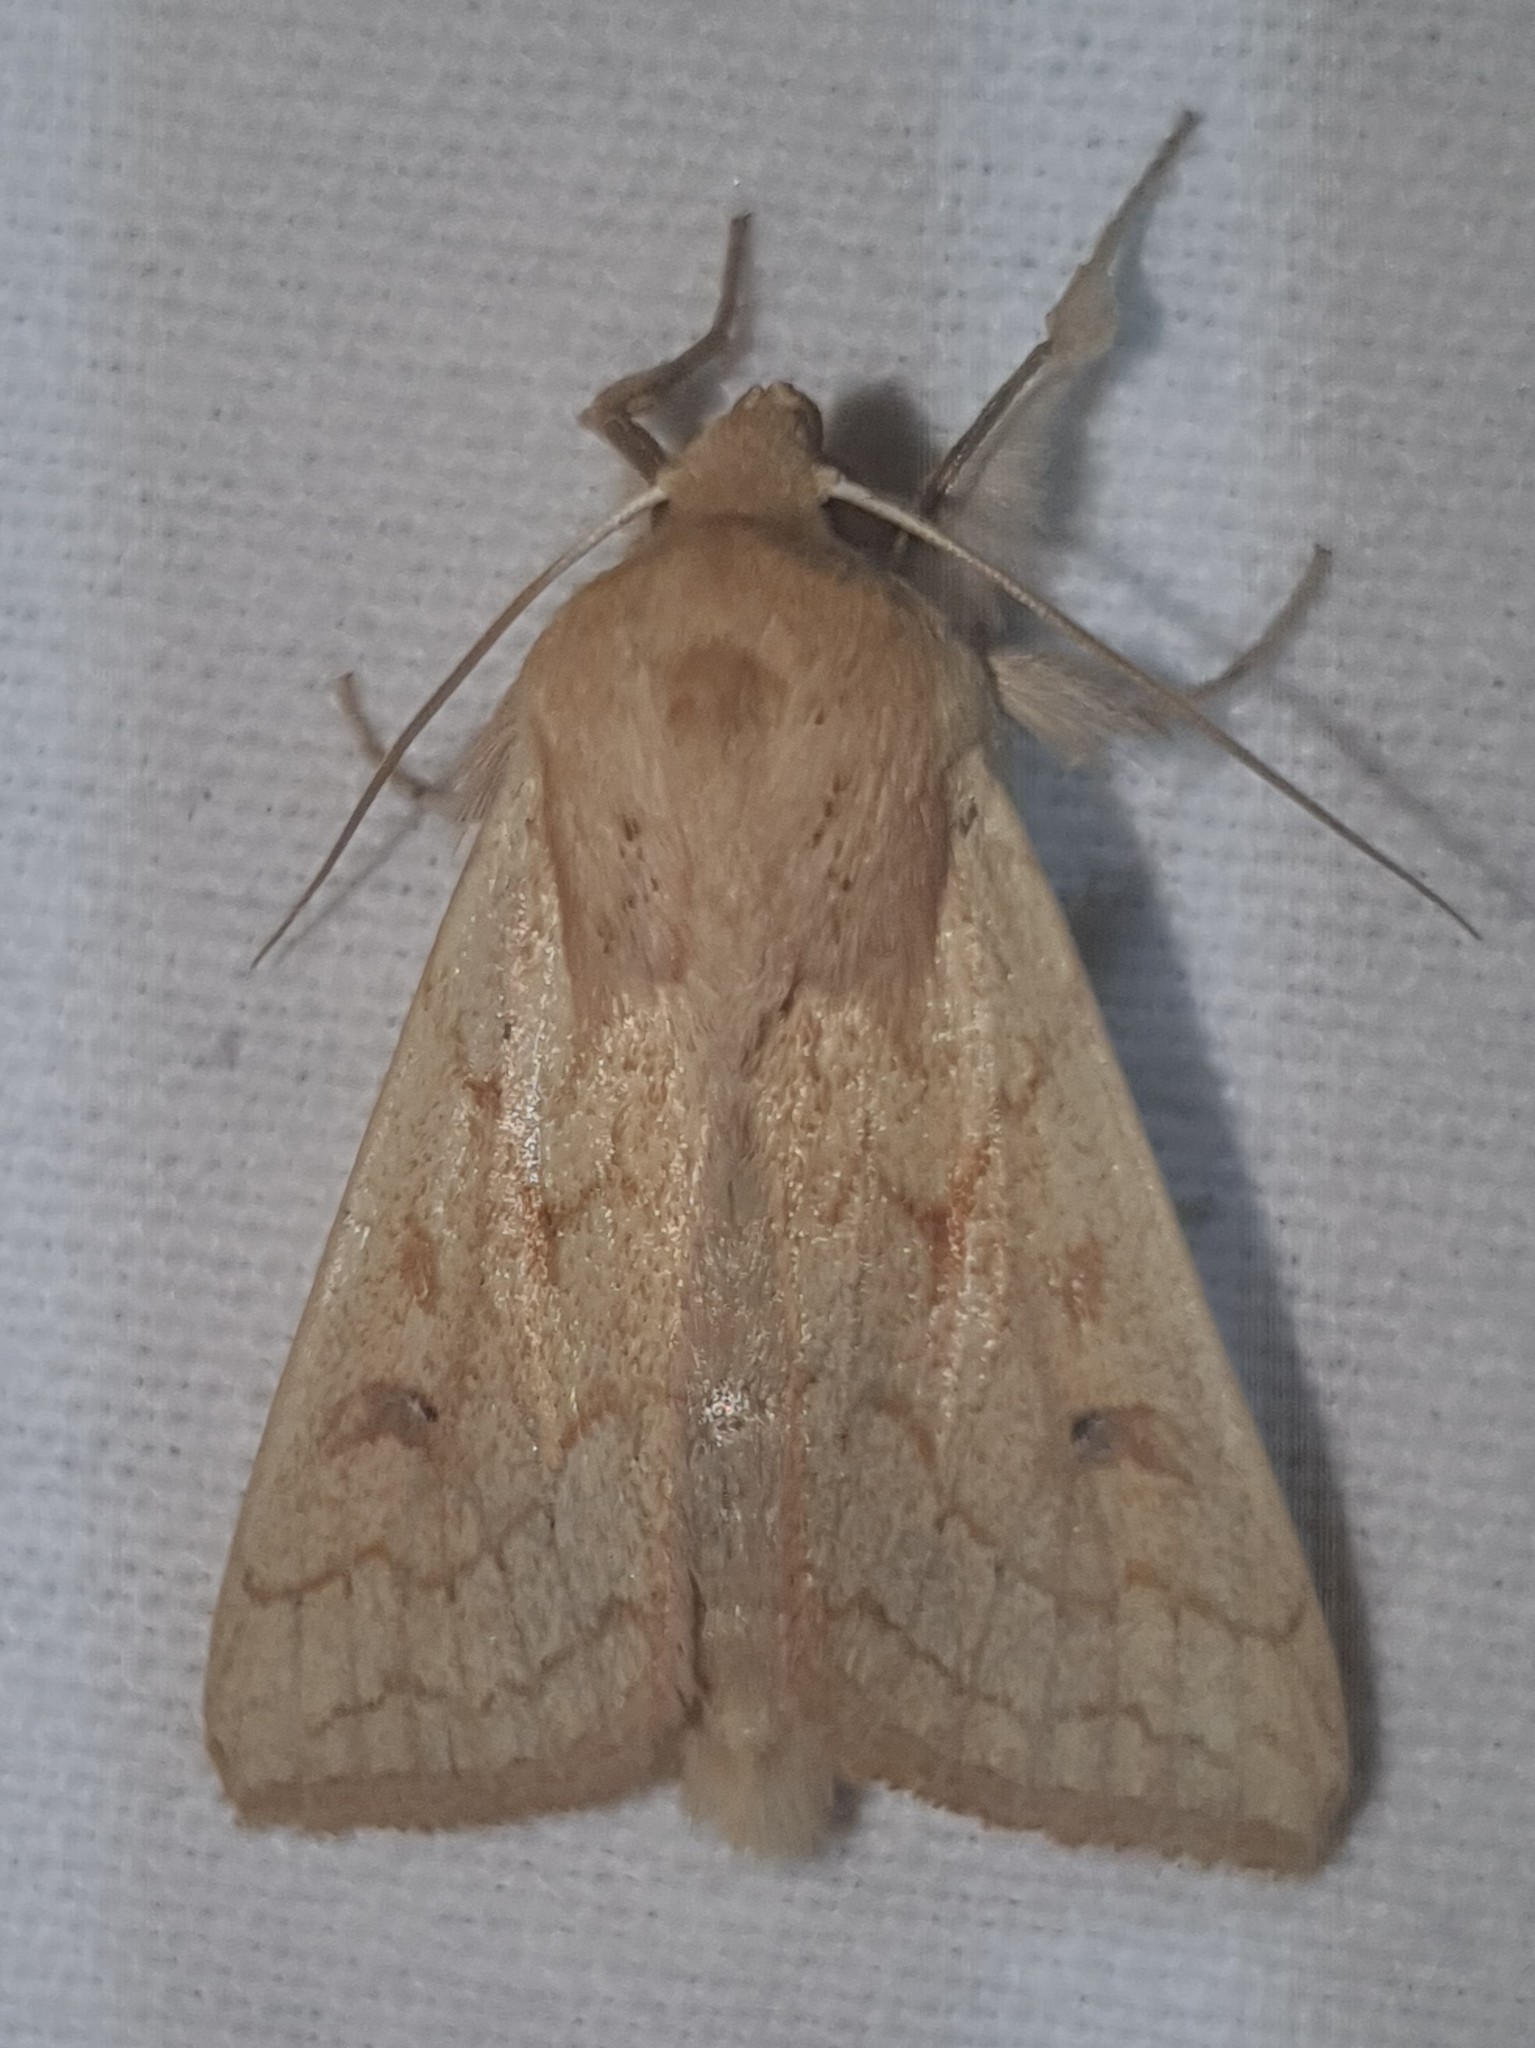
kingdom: Animalia
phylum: Arthropoda
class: Insecta
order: Lepidoptera
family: Noctuidae
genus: Mythimna
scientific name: Mythimna vitellina
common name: Delicate
